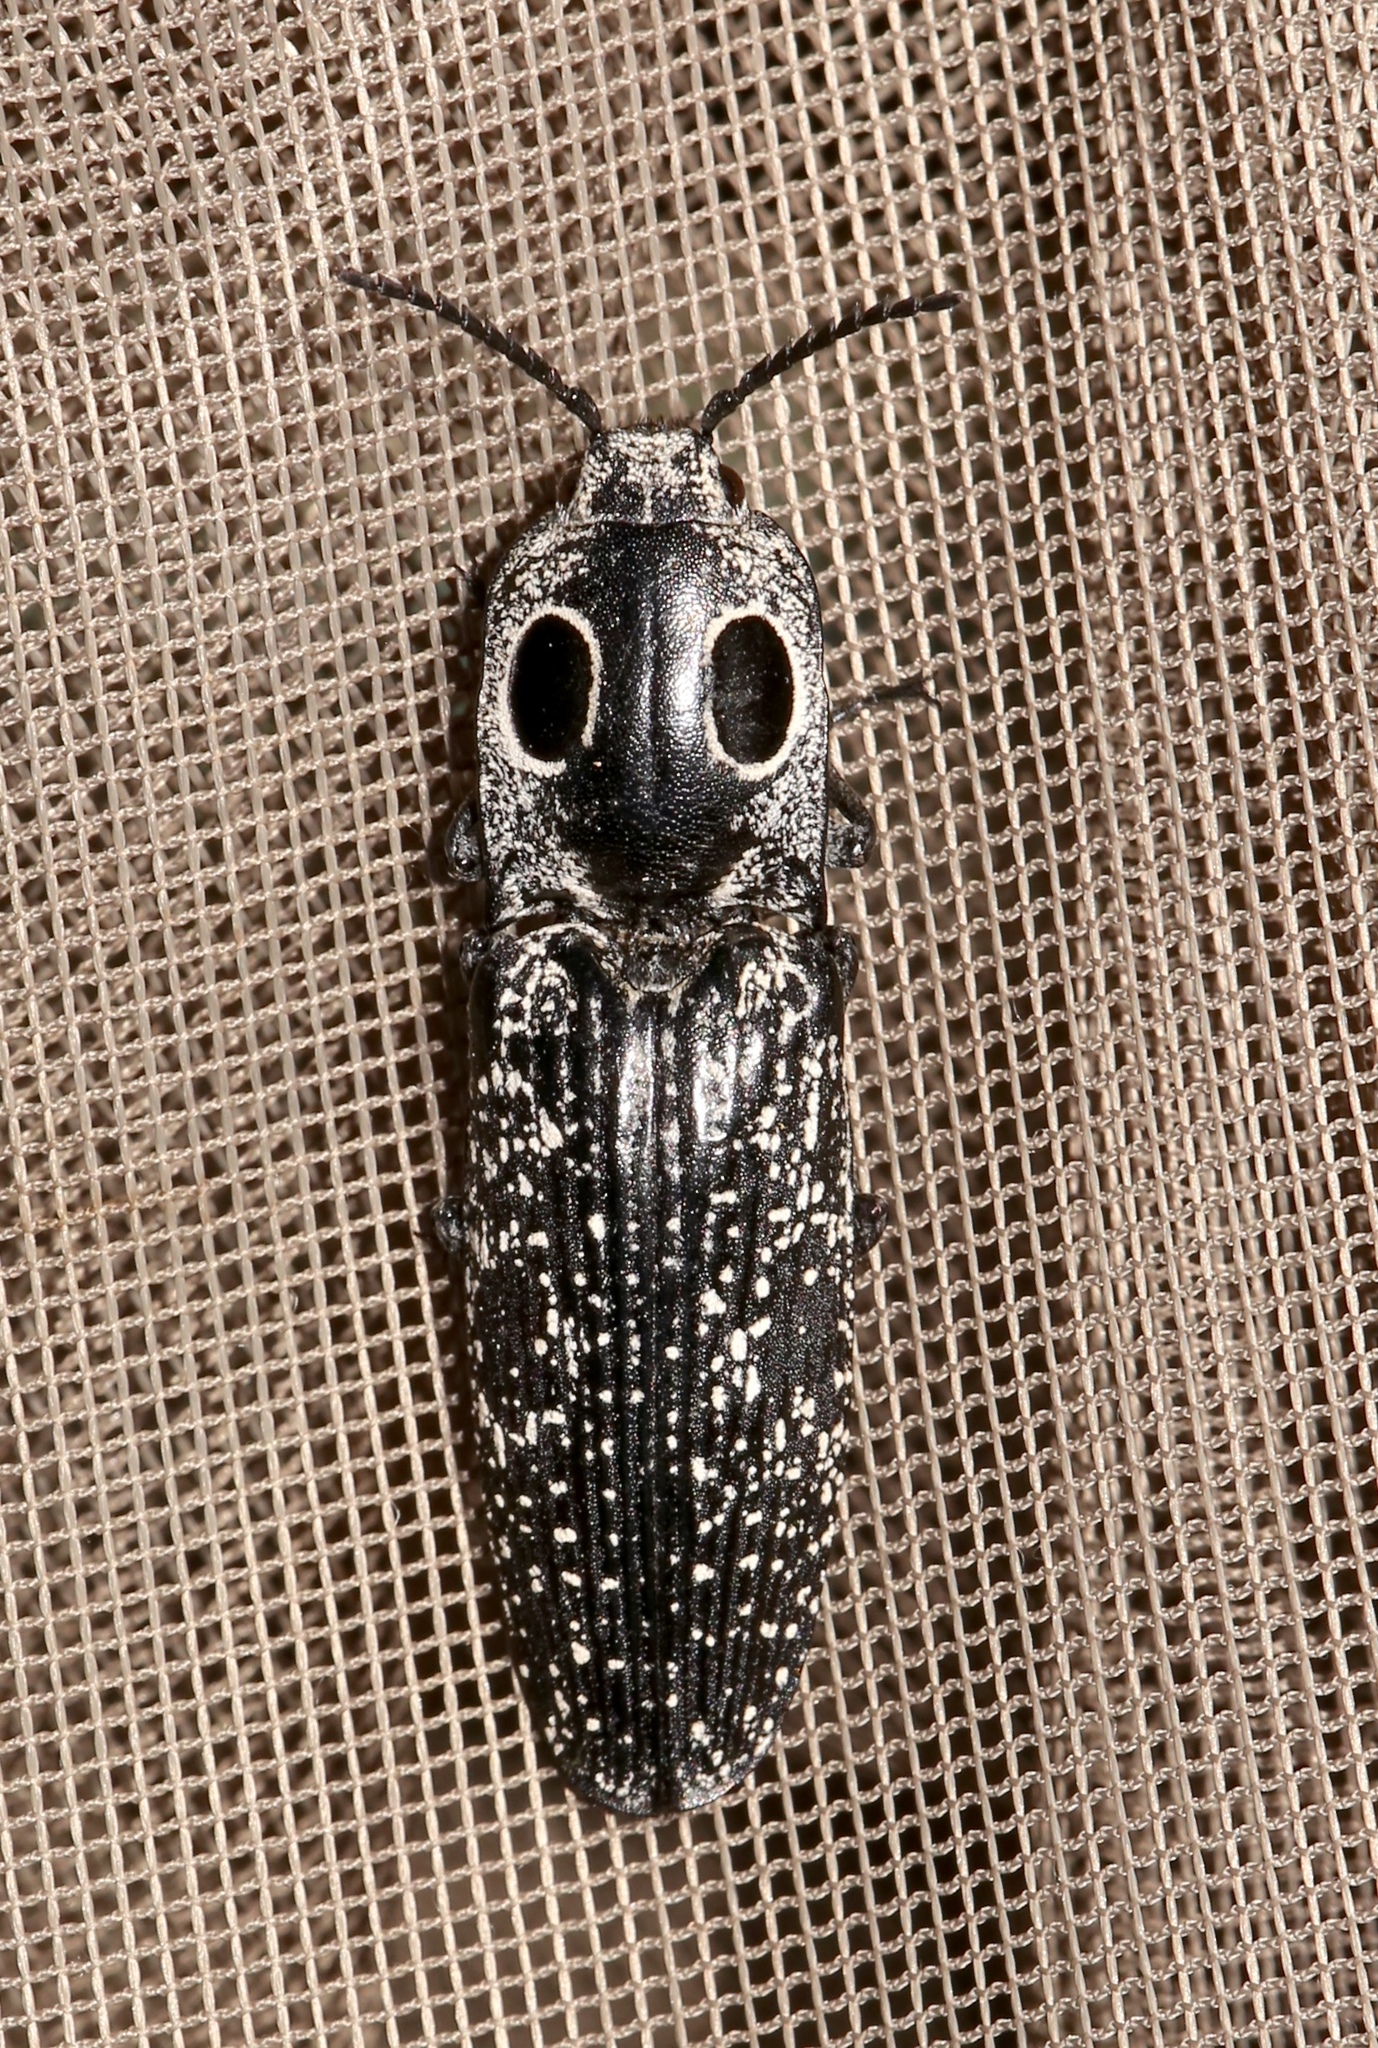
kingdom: Animalia
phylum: Arthropoda
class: Insecta
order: Coleoptera
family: Elateridae
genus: Alaus
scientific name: Alaus oculatus
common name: Eastern eyed click beetle
